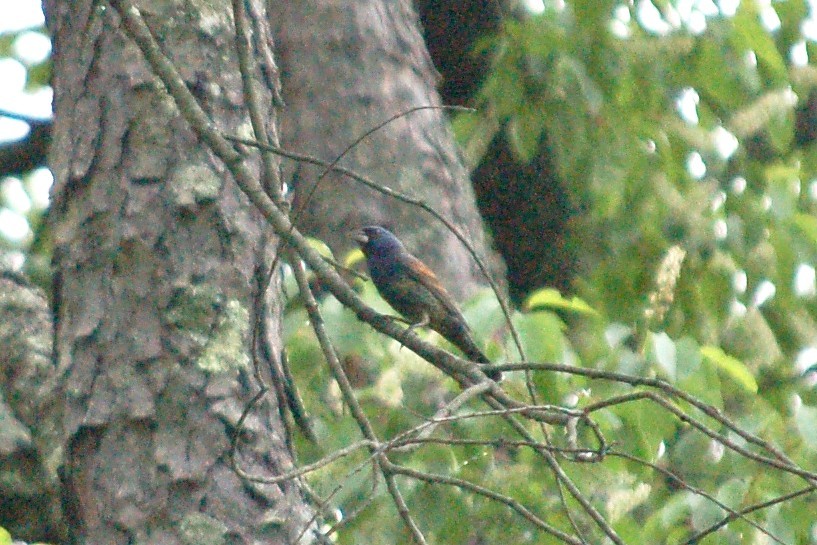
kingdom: Animalia
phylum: Chordata
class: Aves
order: Passeriformes
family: Cardinalidae
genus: Passerina
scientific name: Passerina caerulea
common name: Blue grosbeak
